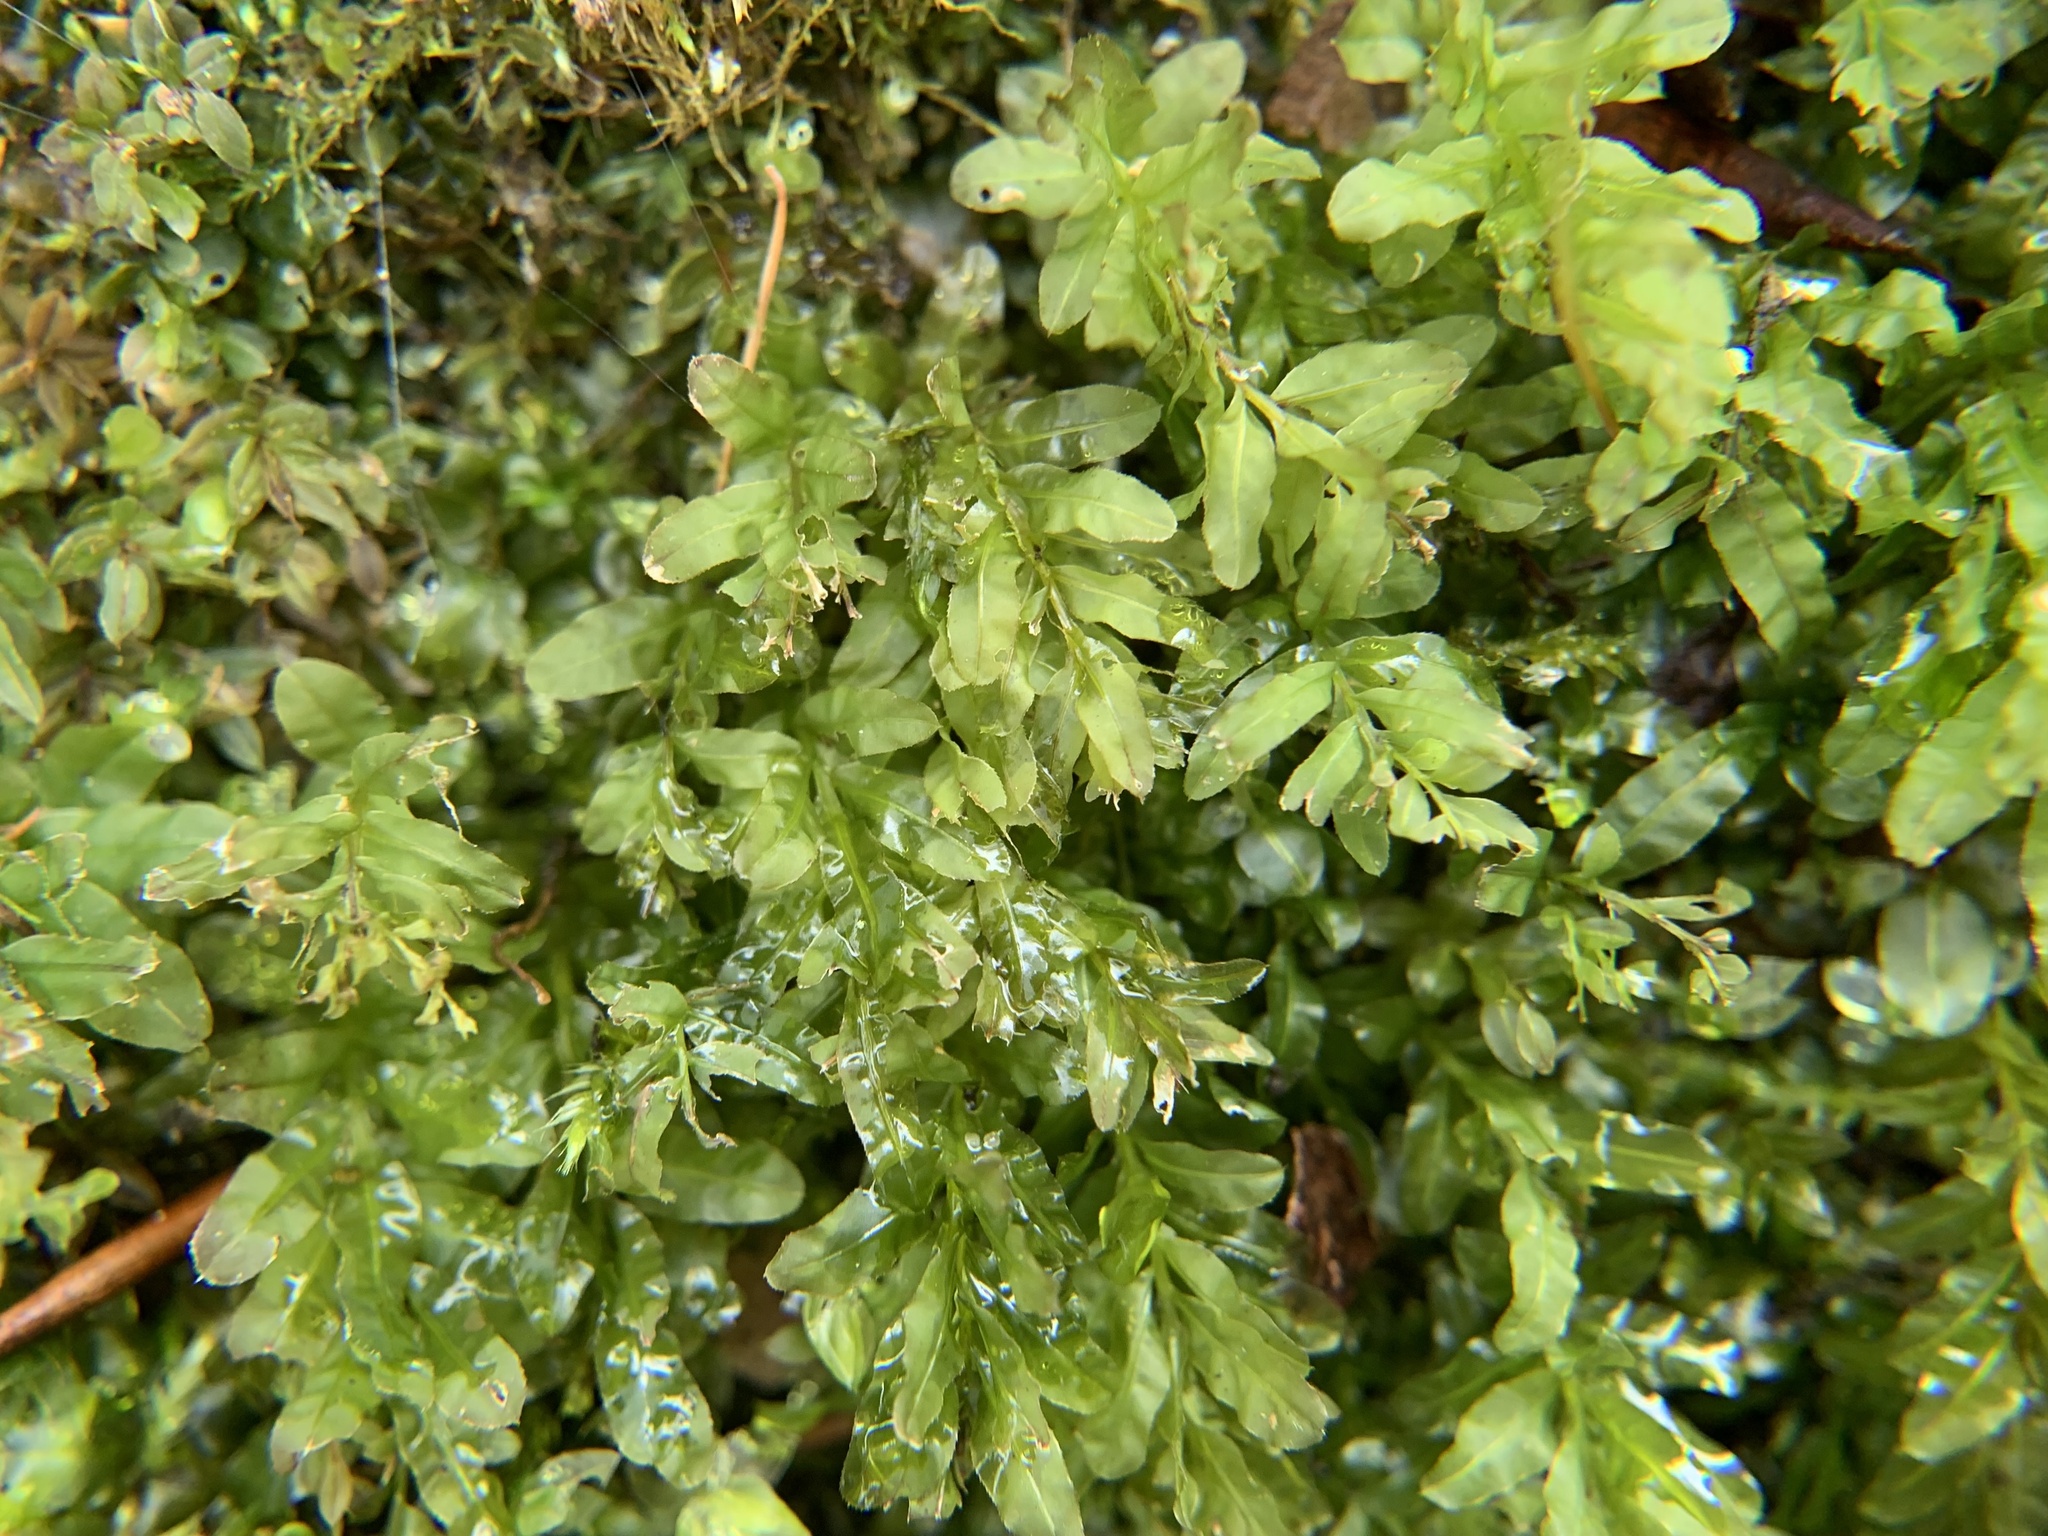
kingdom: Plantae
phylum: Bryophyta
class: Bryopsida
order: Bryales
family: Mniaceae
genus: Plagiomnium
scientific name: Plagiomnium undulatum
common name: Hart's-tongue thyme-moss
